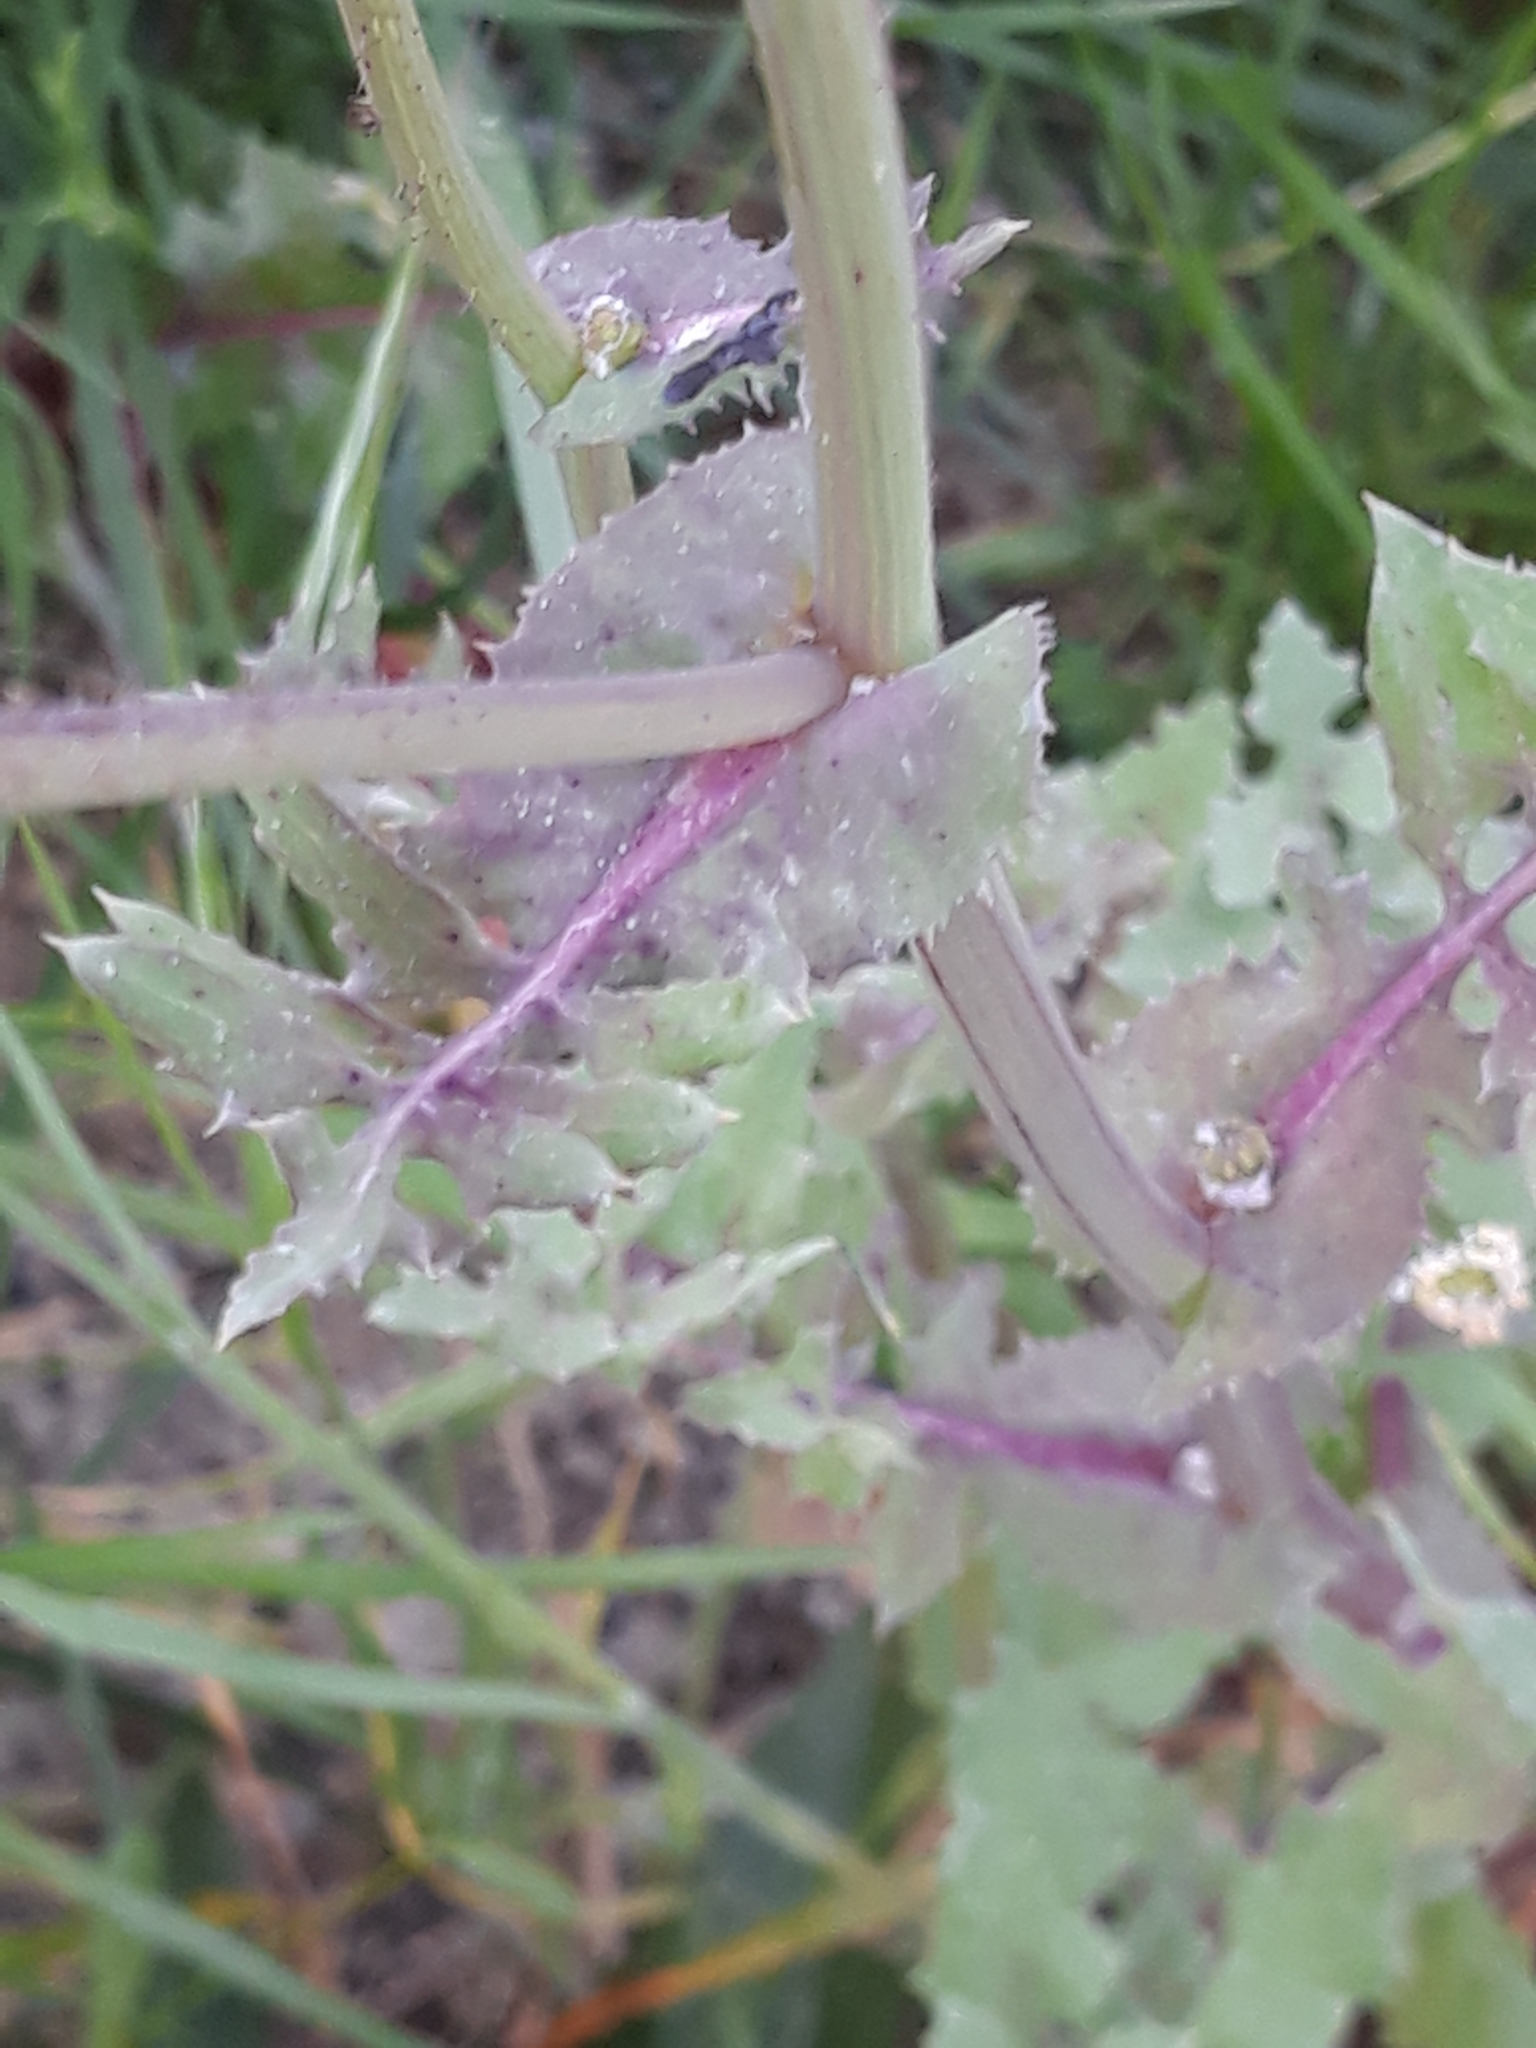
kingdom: Plantae
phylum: Tracheophyta
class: Magnoliopsida
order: Asterales
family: Asteraceae
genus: Sonchus
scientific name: Sonchus oleraceus
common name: Common sowthistle
